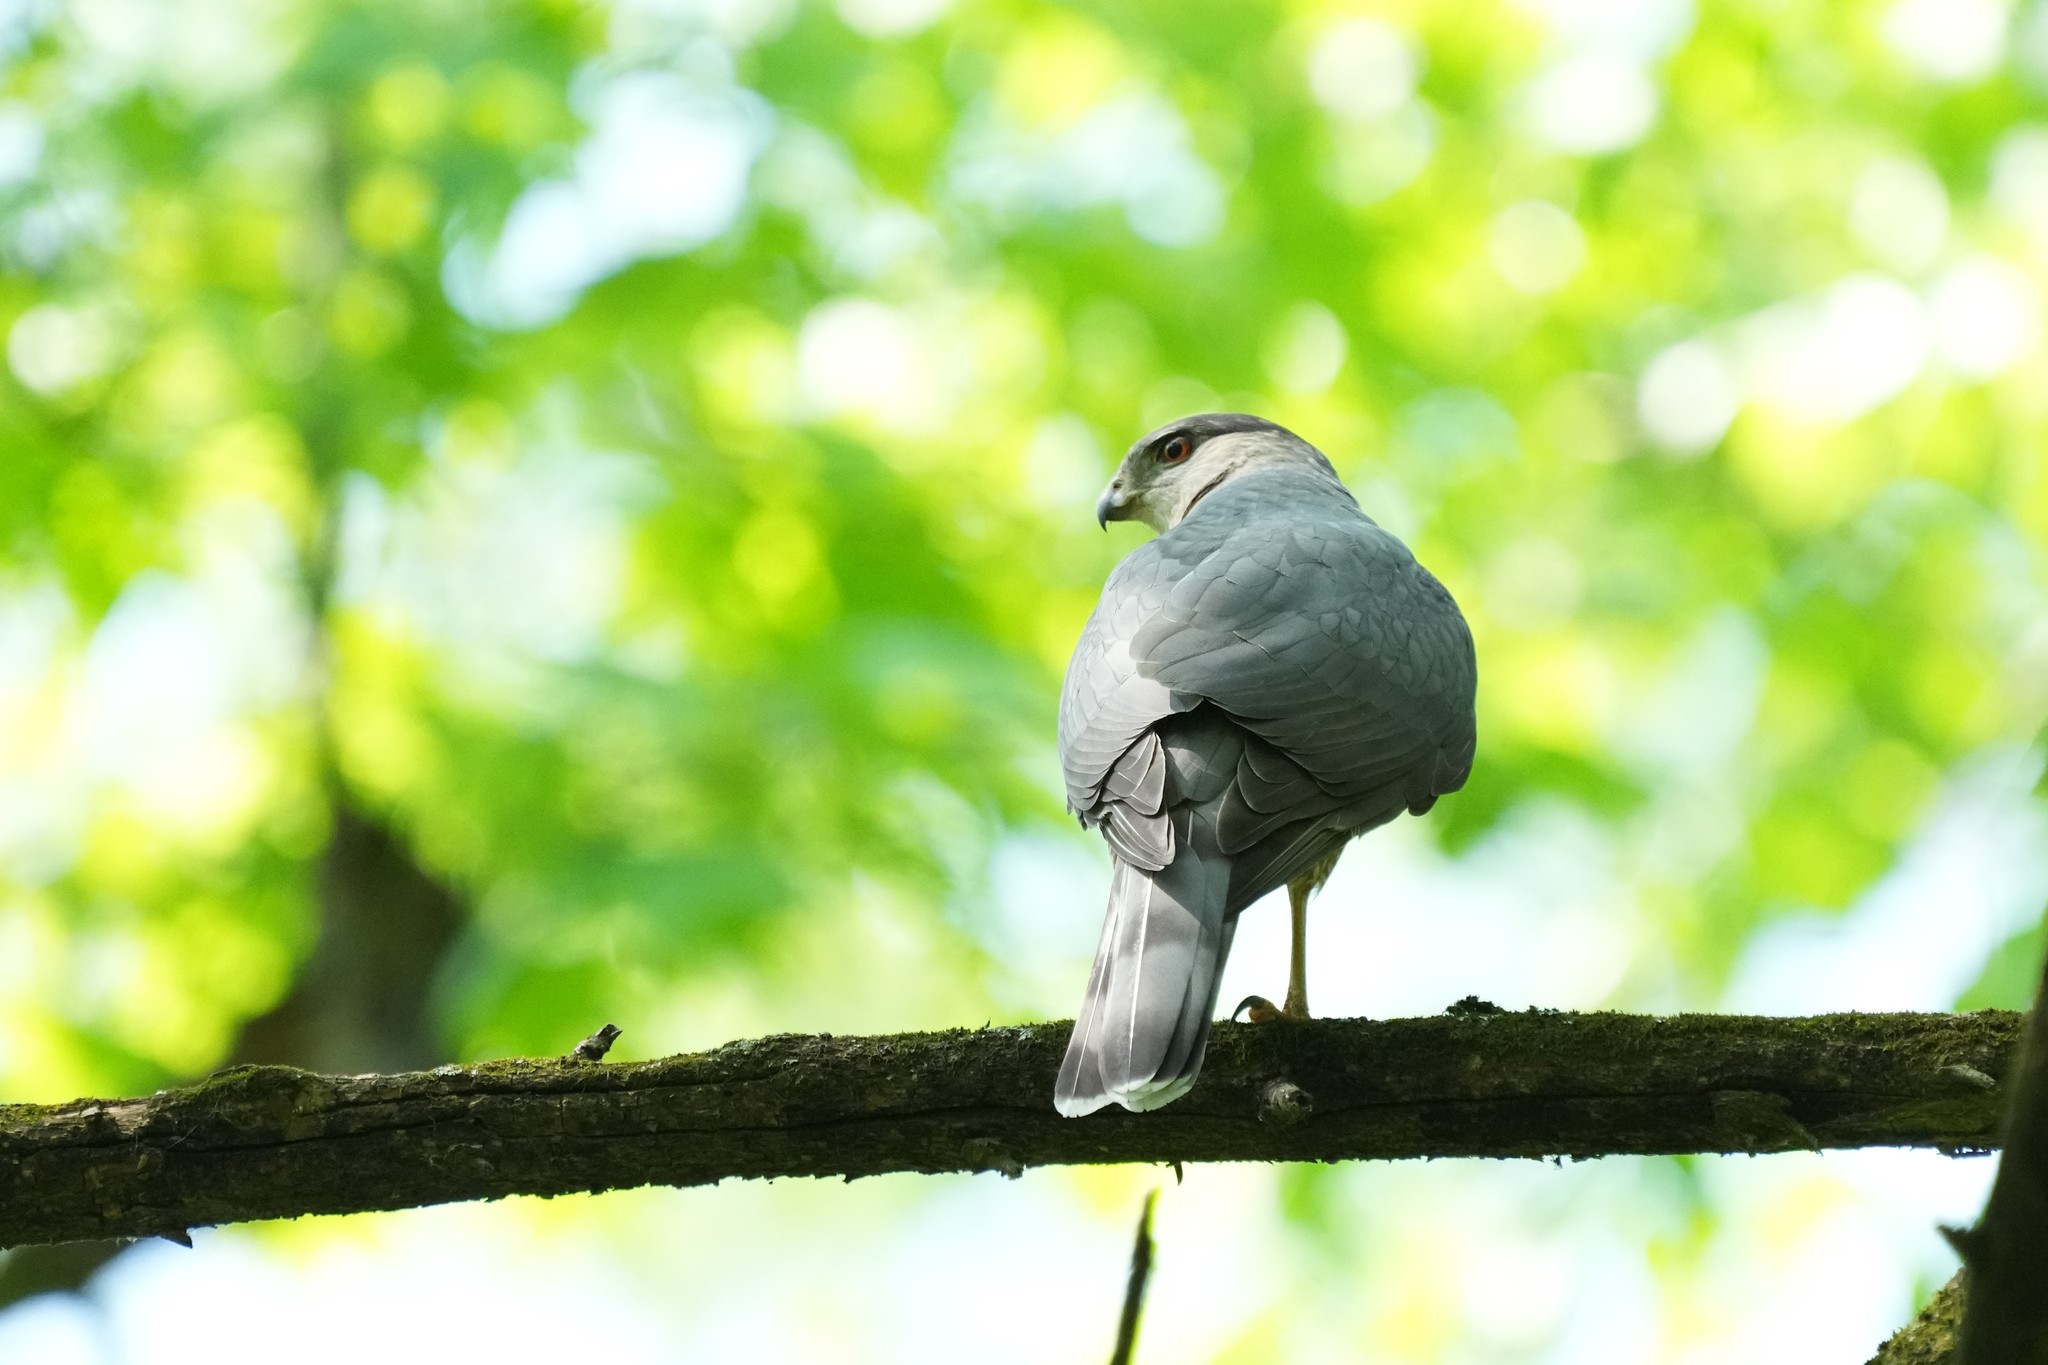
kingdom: Animalia
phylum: Chordata
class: Aves
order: Accipitriformes
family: Accipitridae
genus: Accipiter
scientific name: Accipiter cooperii
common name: Cooper's hawk
